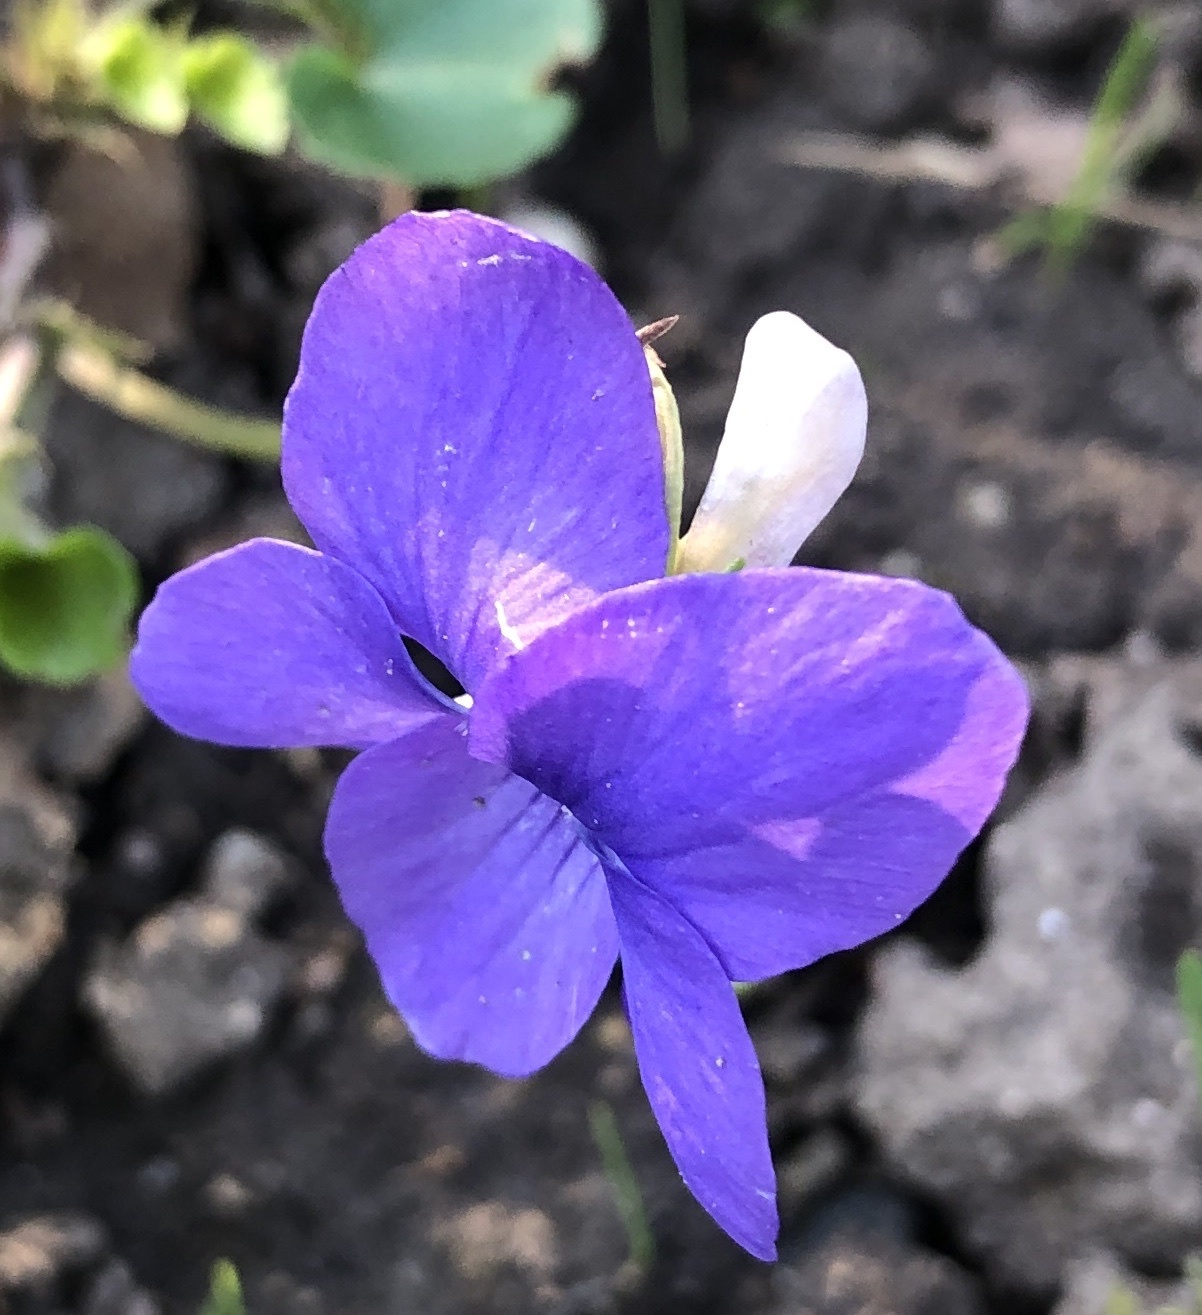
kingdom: Plantae
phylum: Tracheophyta
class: Magnoliopsida
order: Malpighiales
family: Violaceae
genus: Viola
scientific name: Viola riviniana
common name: Common dog-violet
